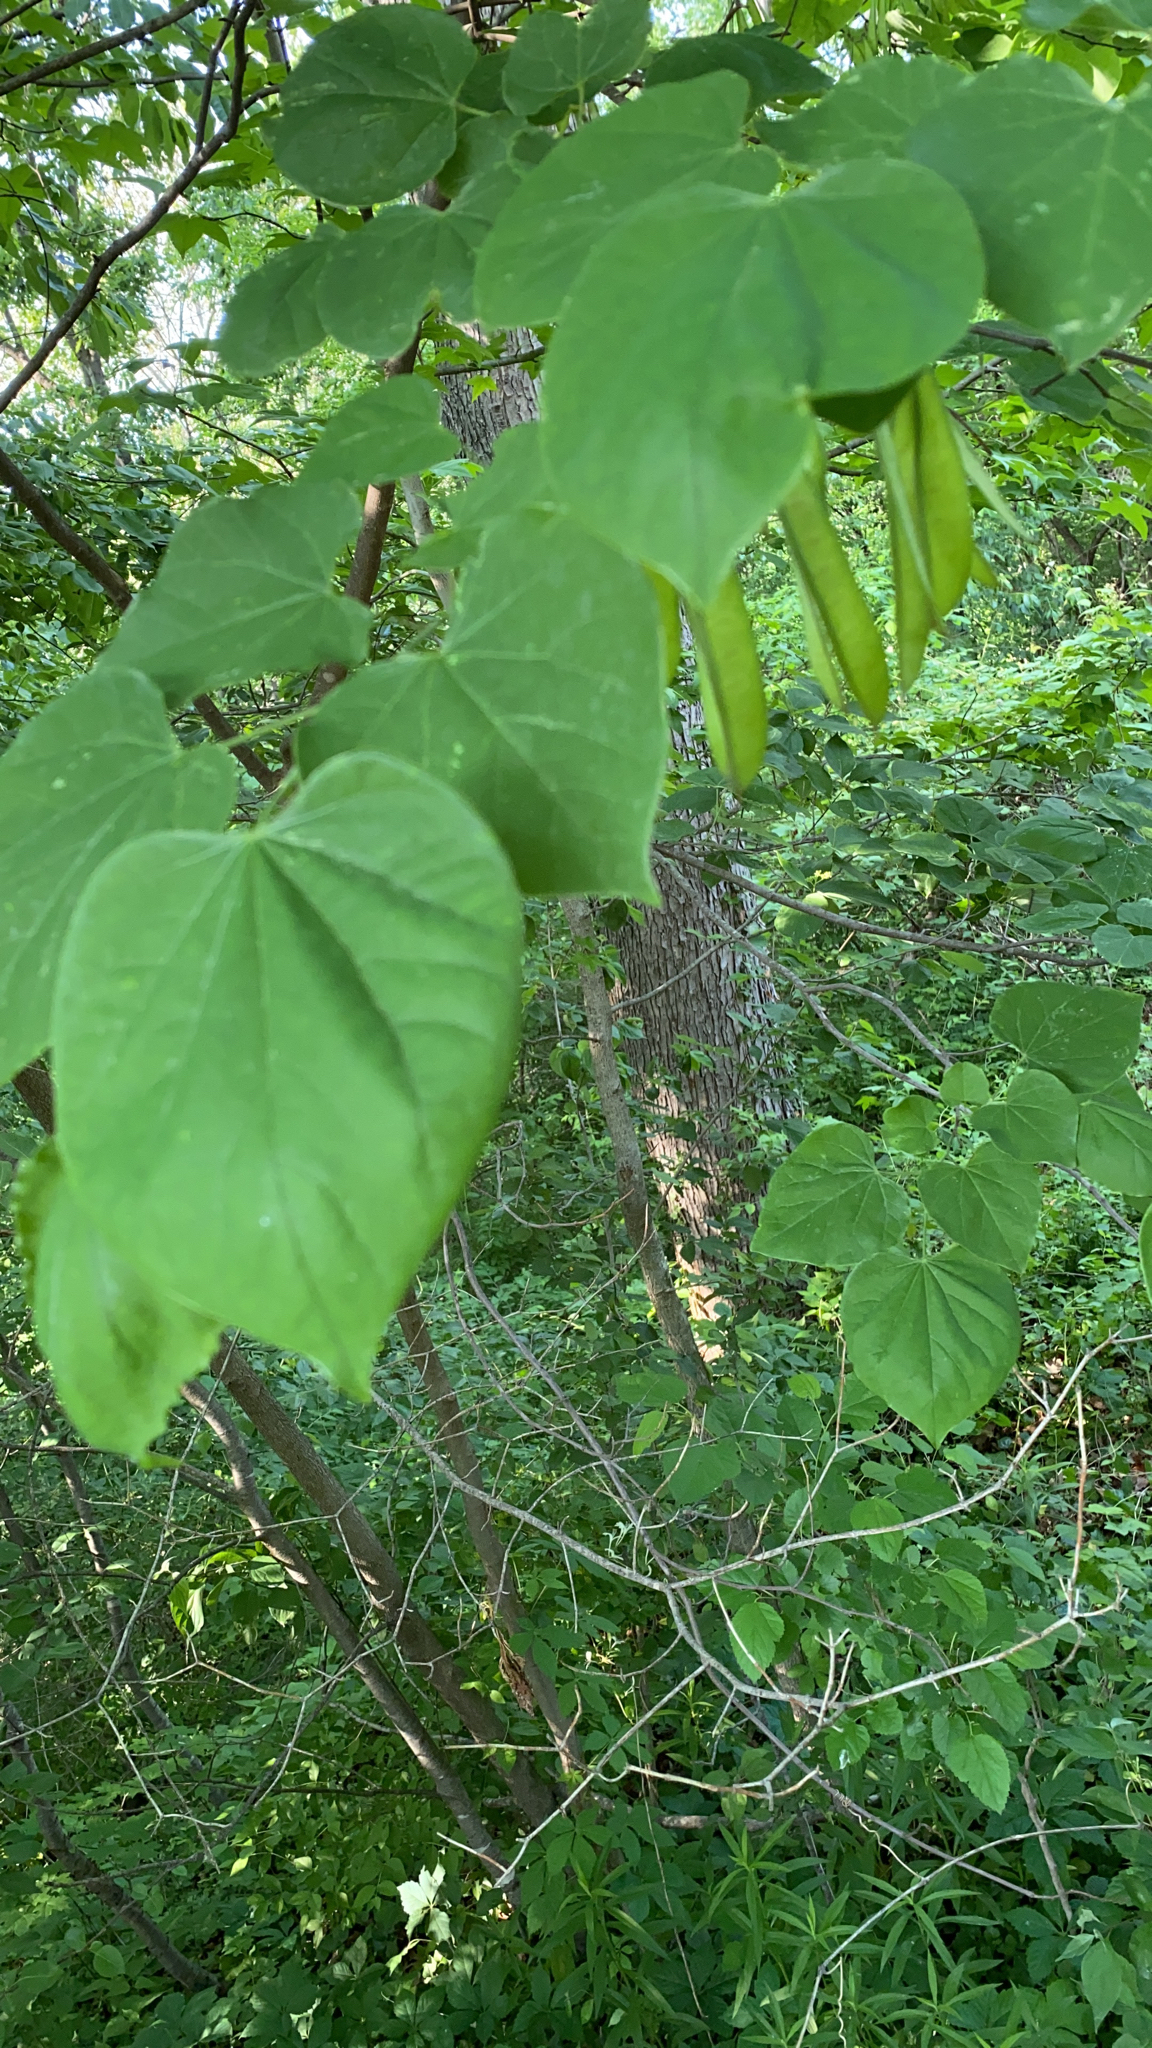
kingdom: Plantae
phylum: Tracheophyta
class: Magnoliopsida
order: Fabales
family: Fabaceae
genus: Cercis
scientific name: Cercis canadensis
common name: Eastern redbud
